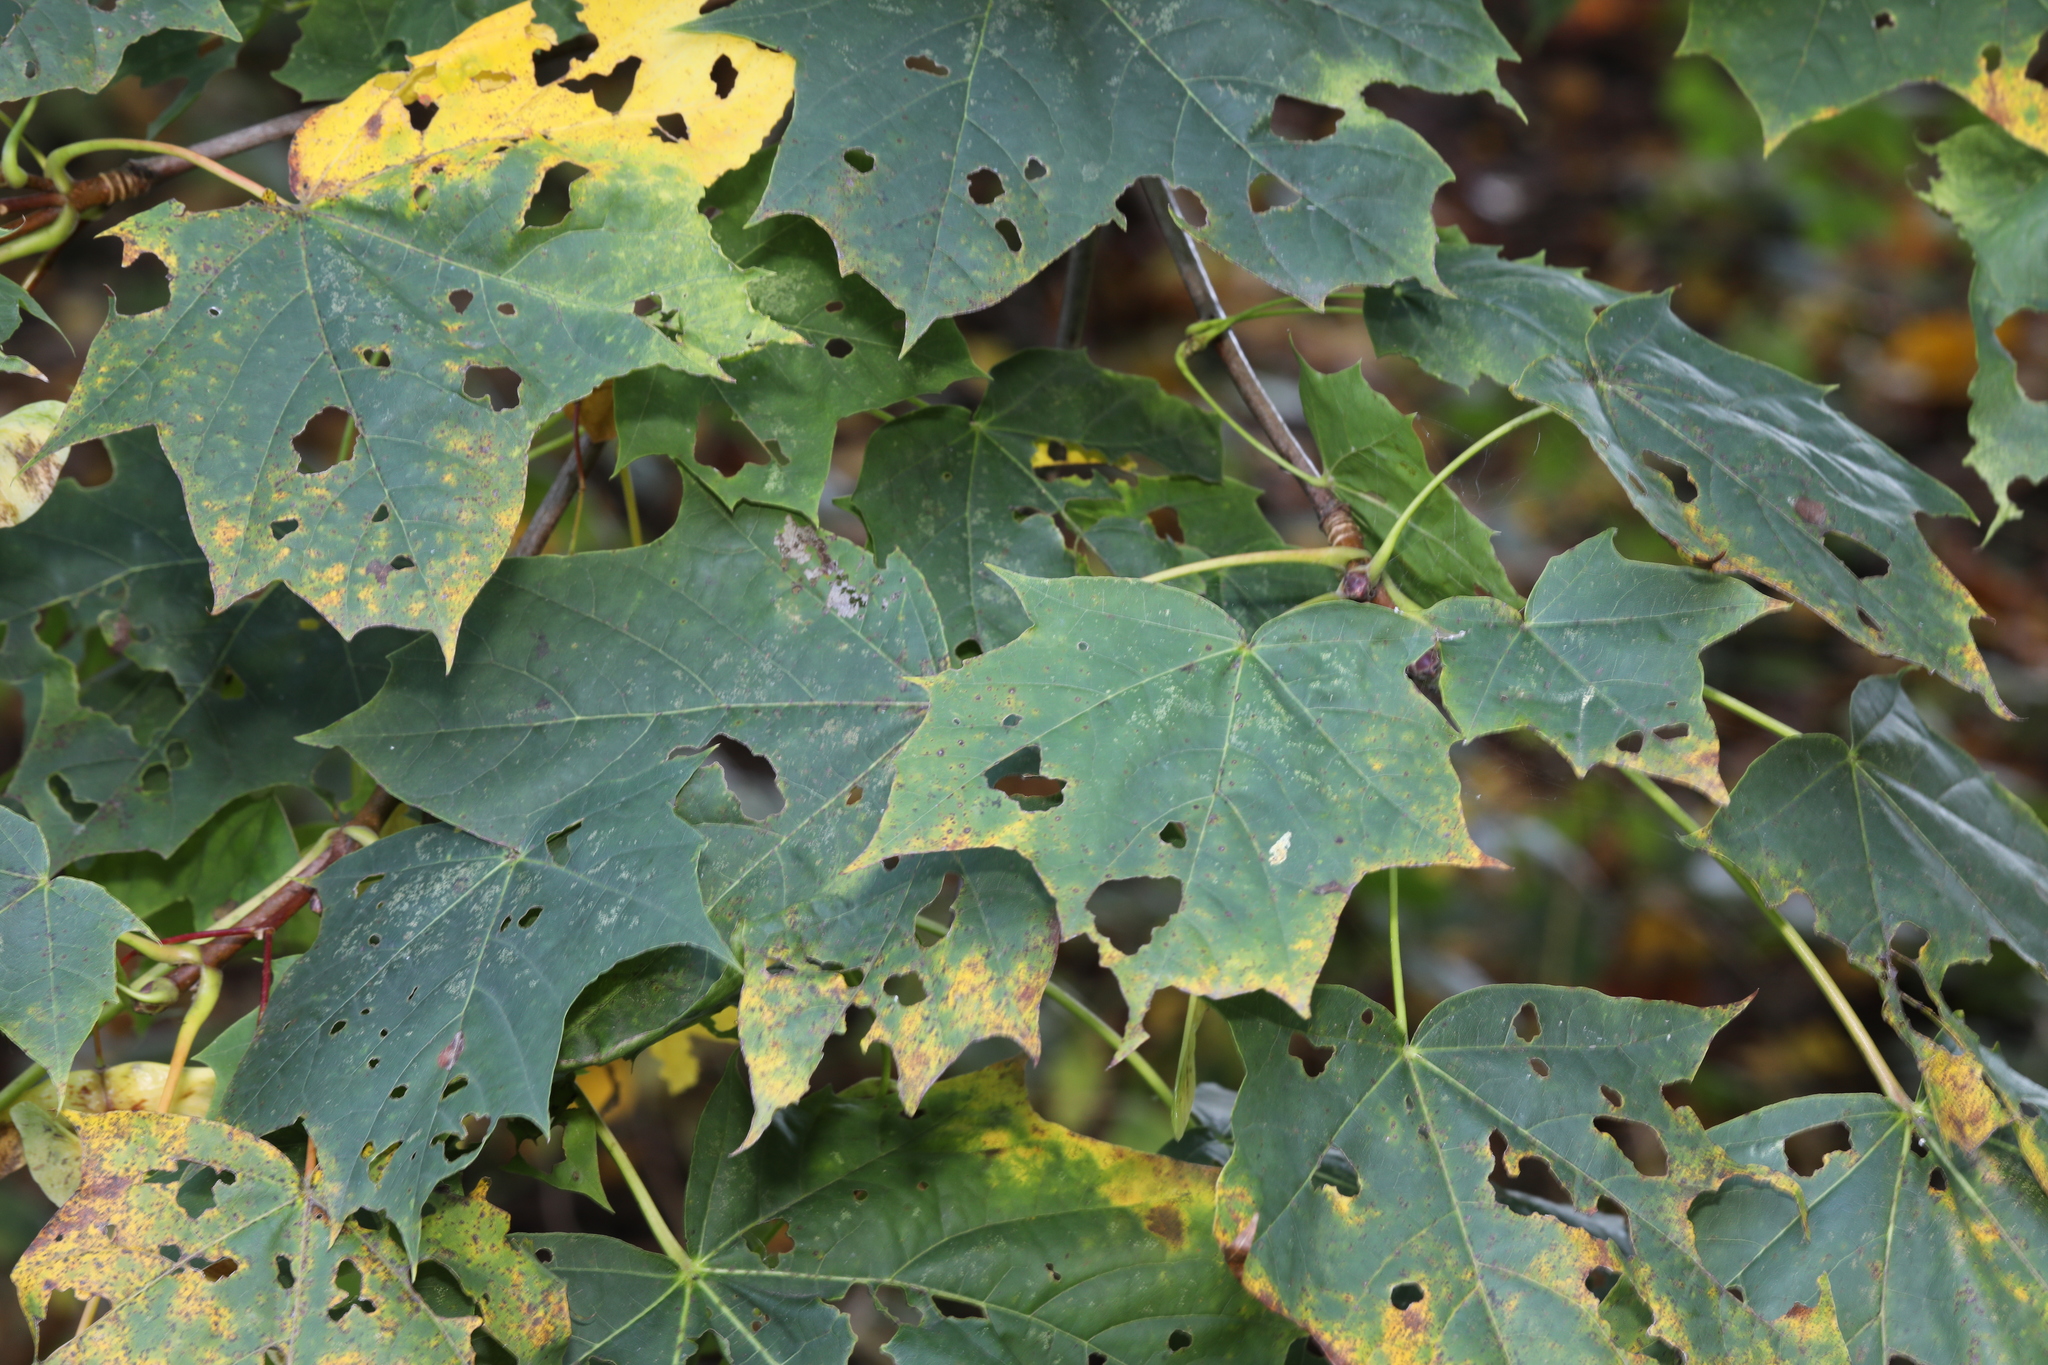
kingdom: Plantae
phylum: Tracheophyta
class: Magnoliopsida
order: Sapindales
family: Sapindaceae
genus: Acer
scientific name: Acer platanoides
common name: Norway maple
